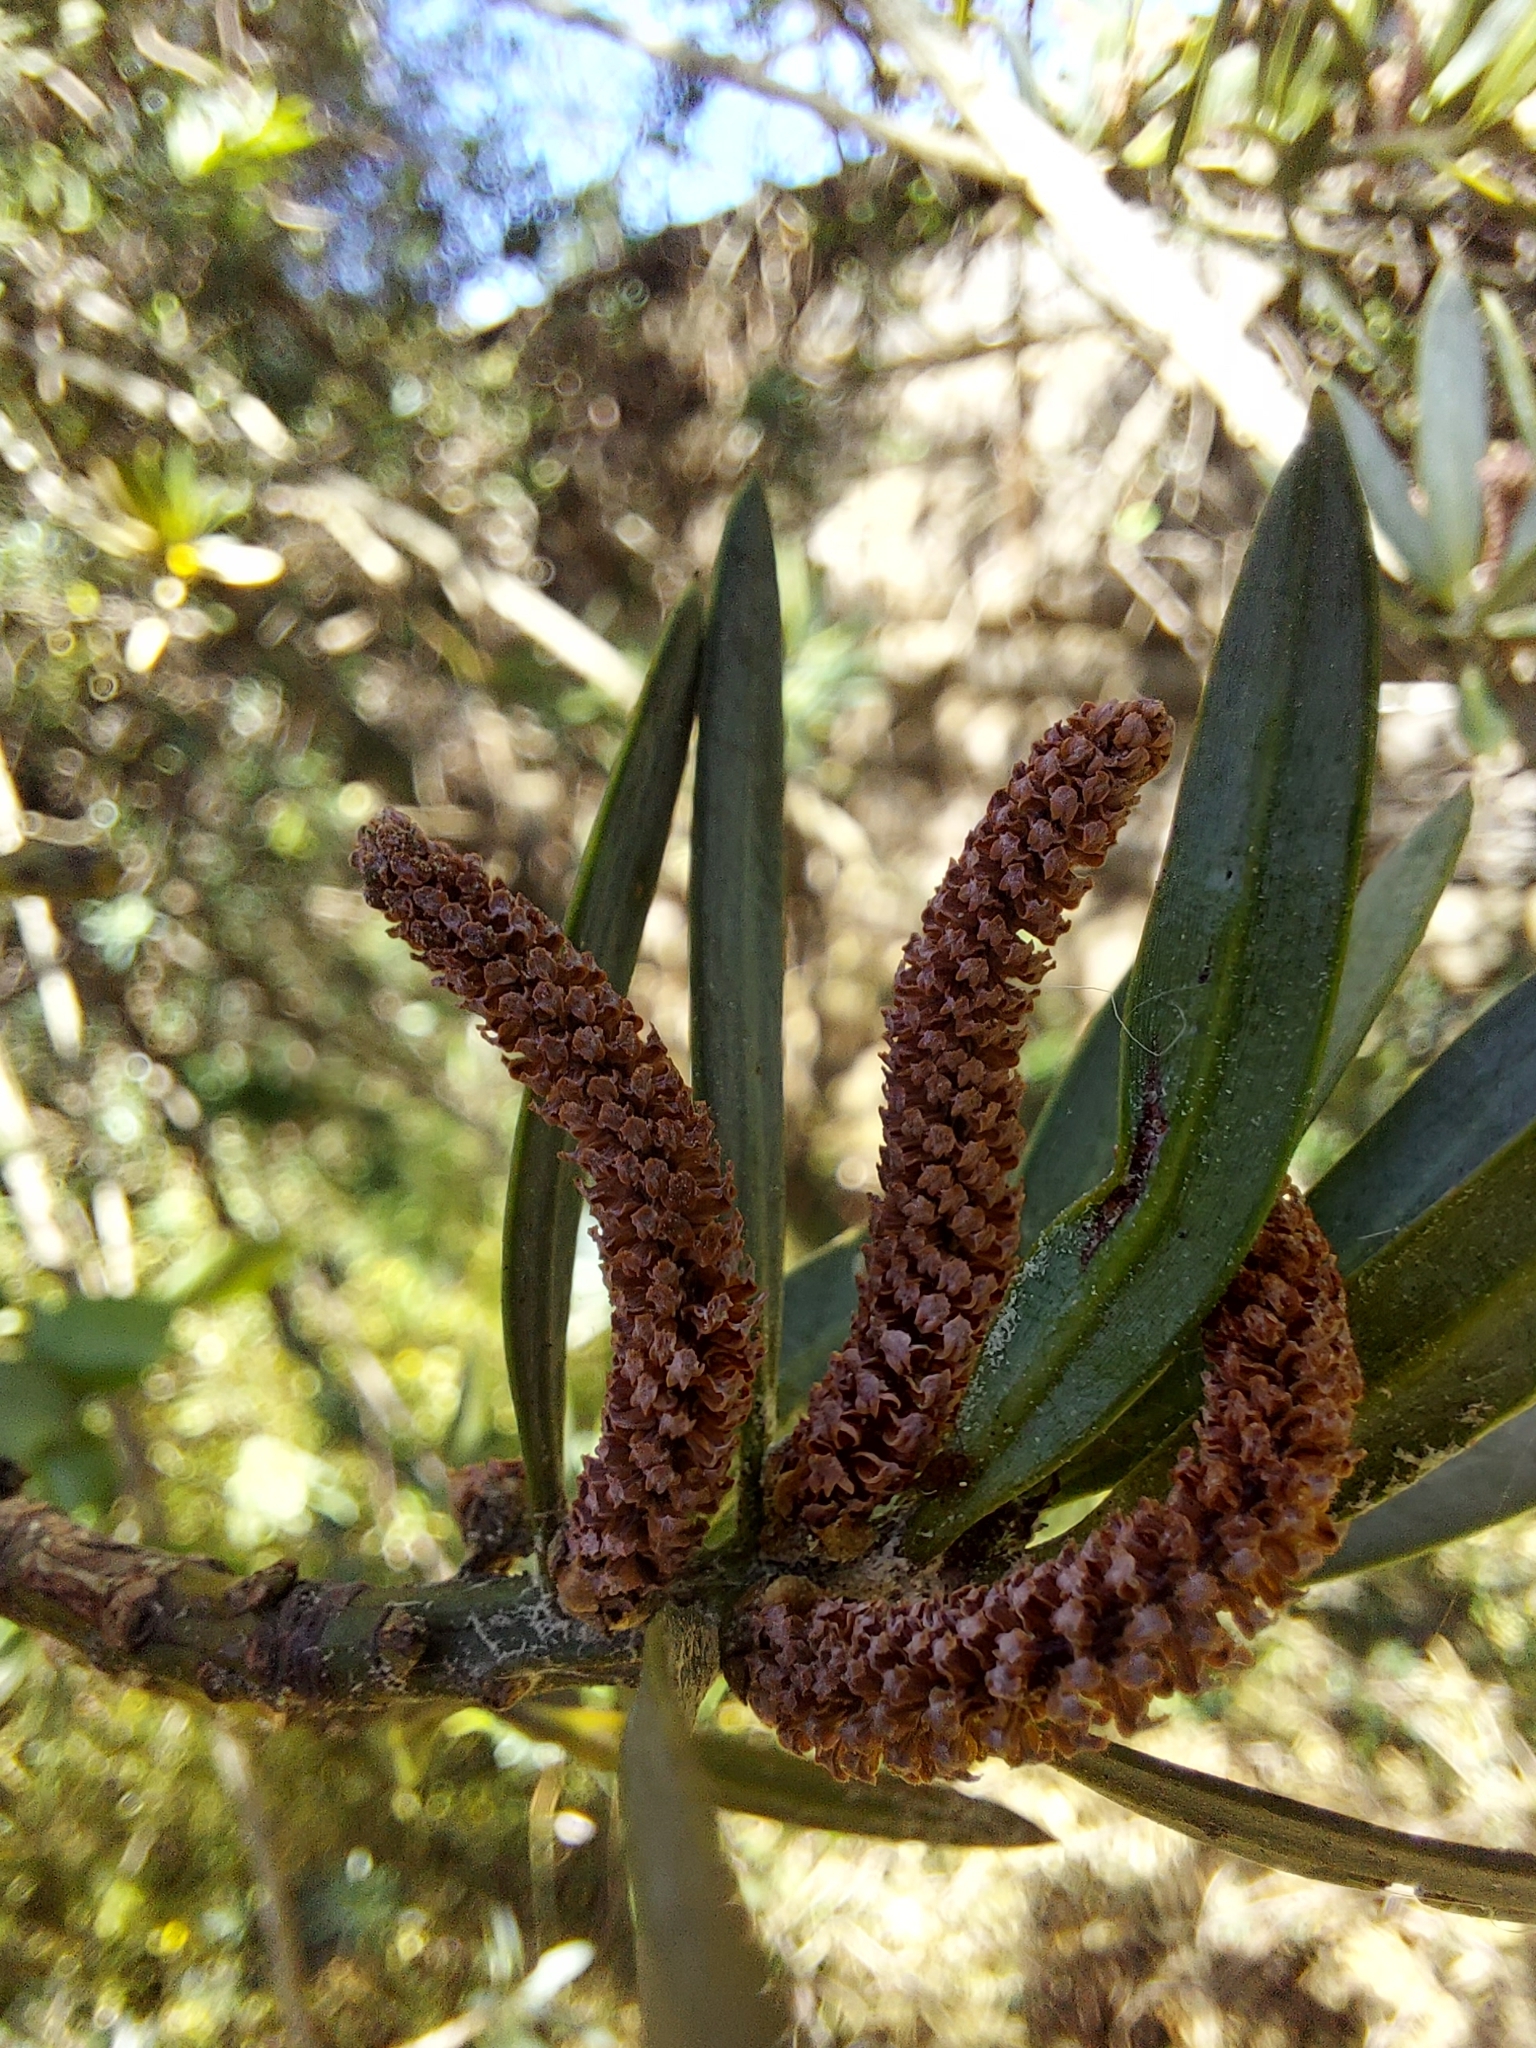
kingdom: Plantae
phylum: Tracheophyta
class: Pinopsida
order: Pinales
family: Podocarpaceae
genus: Podocarpus
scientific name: Podocarpus elongatus
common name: Breede river yellowwood
